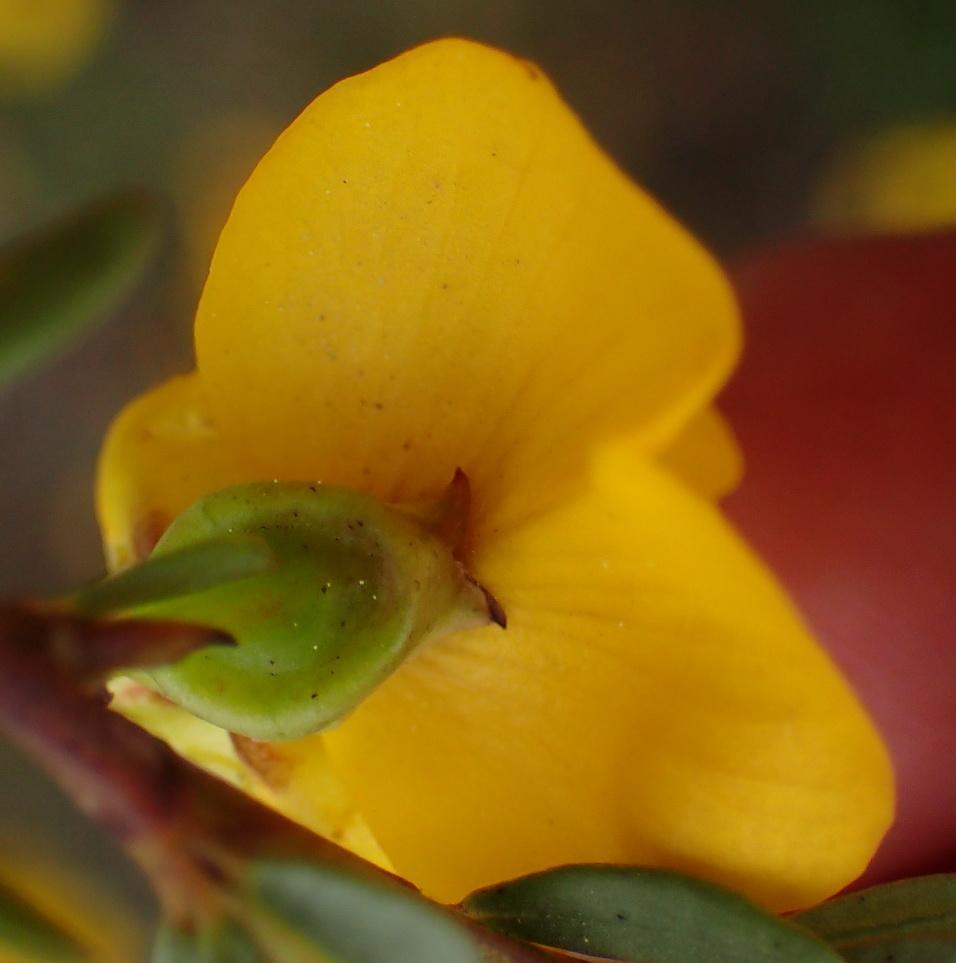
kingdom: Plantae
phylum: Tracheophyta
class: Magnoliopsida
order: Fabales
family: Fabaceae
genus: Cyclopia
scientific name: Cyclopia subternata
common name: Honeybush tea
